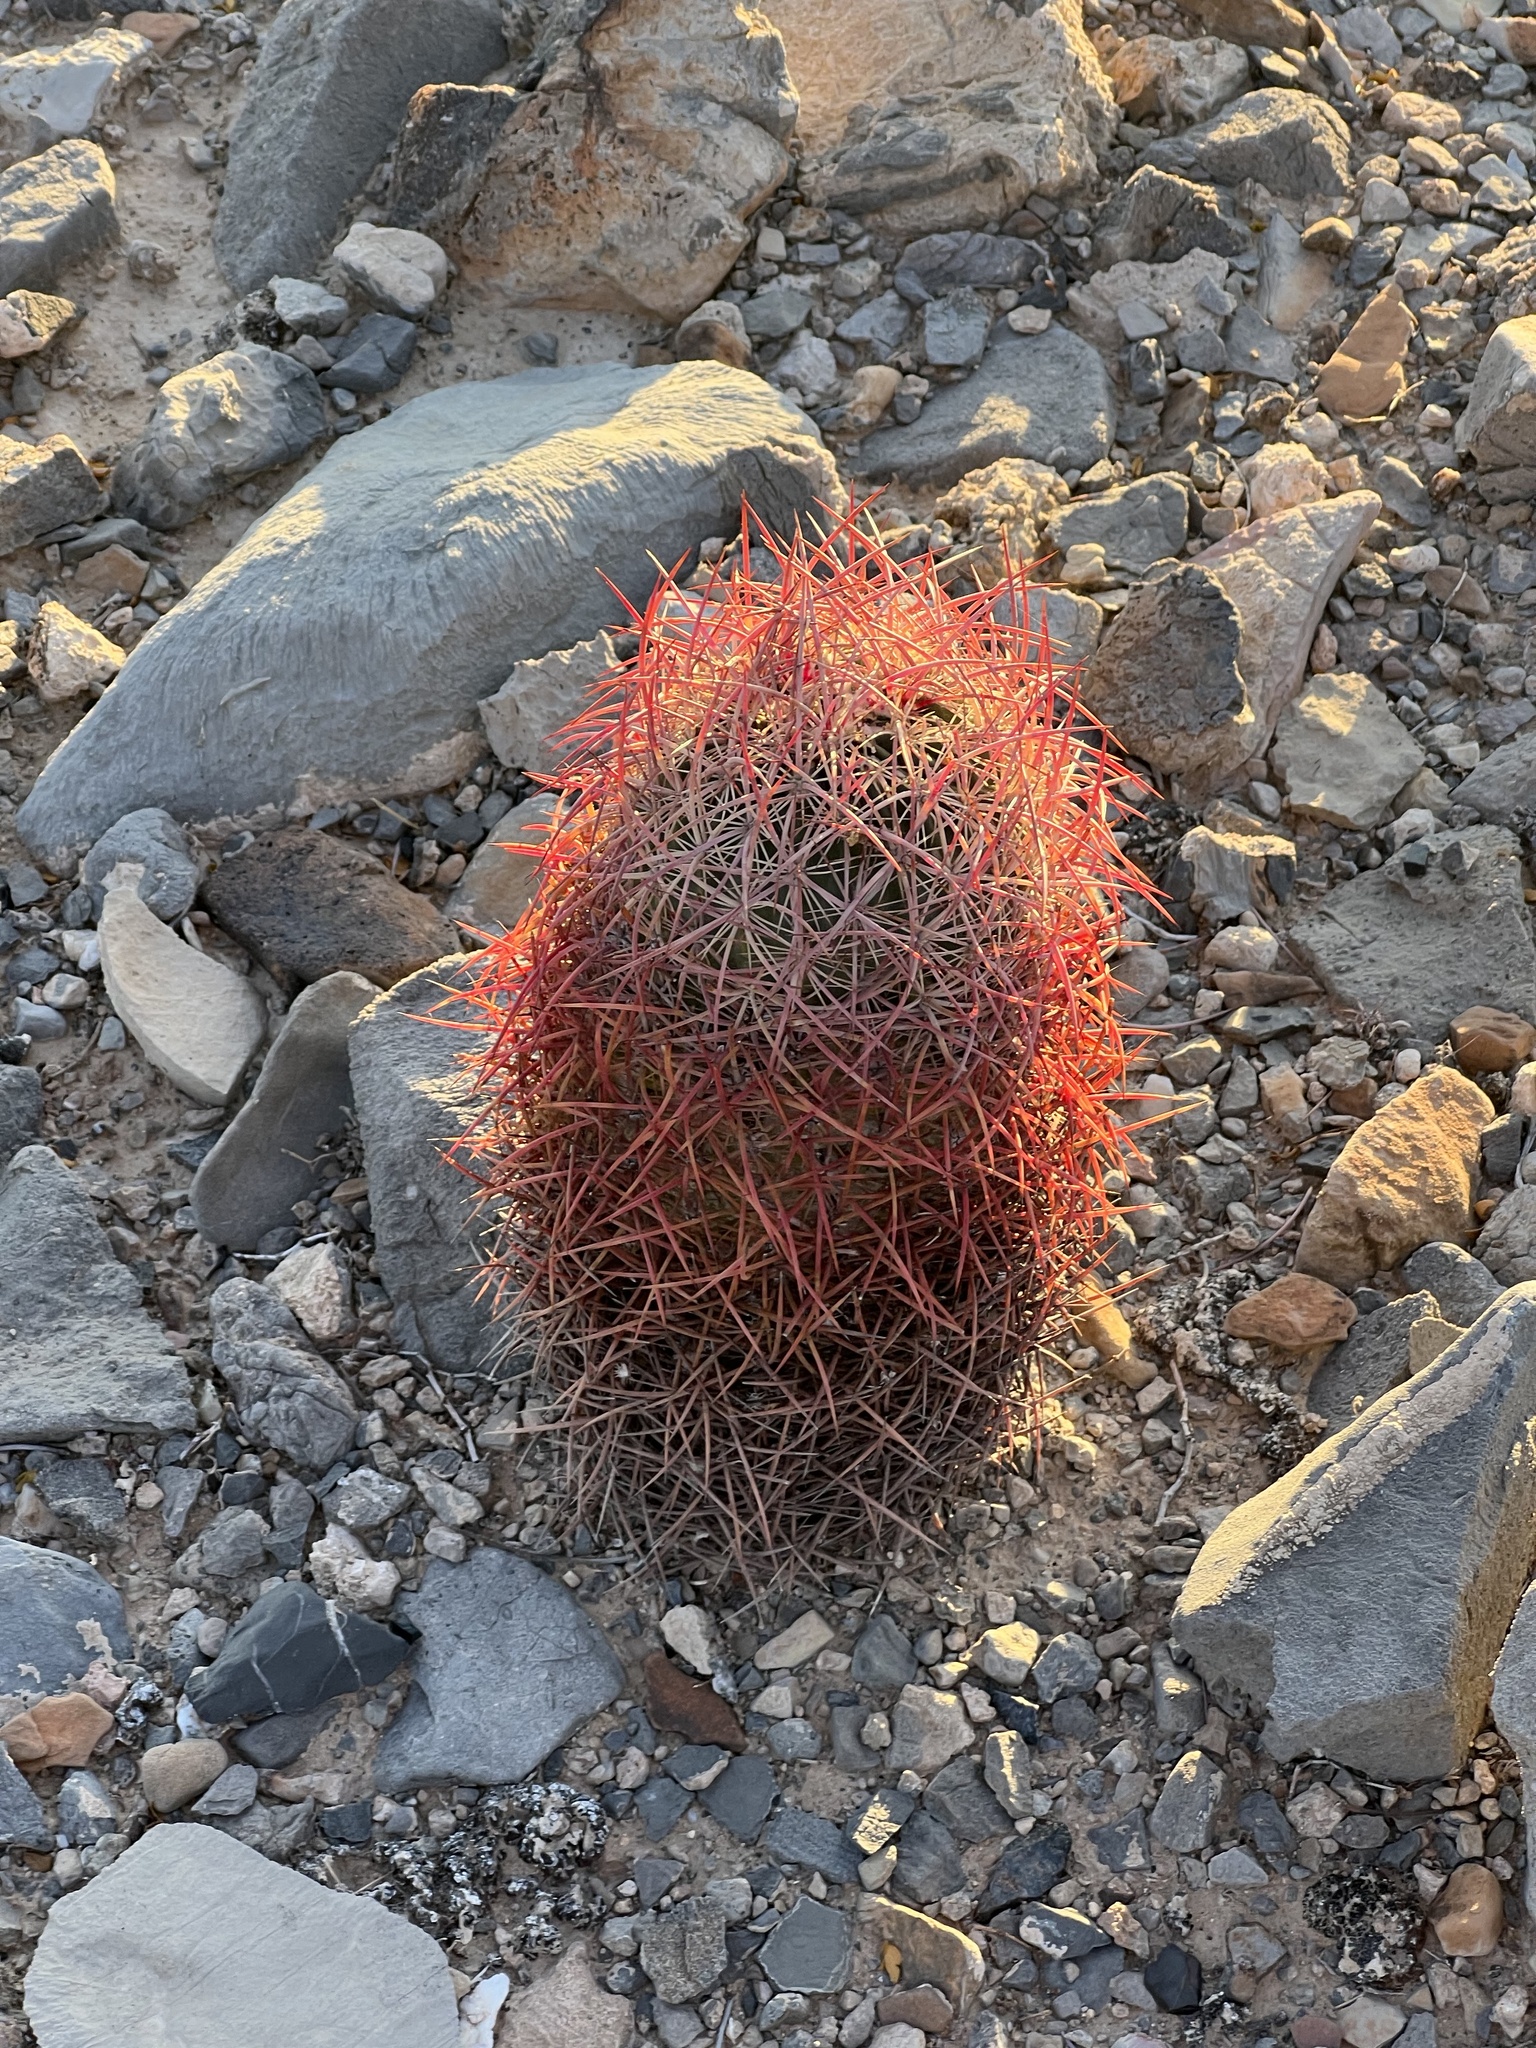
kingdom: Plantae
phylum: Tracheophyta
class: Magnoliopsida
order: Caryophyllales
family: Cactaceae
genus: Sclerocactus
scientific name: Sclerocactus johnsonii
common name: Eight-spine fishhook cactus
